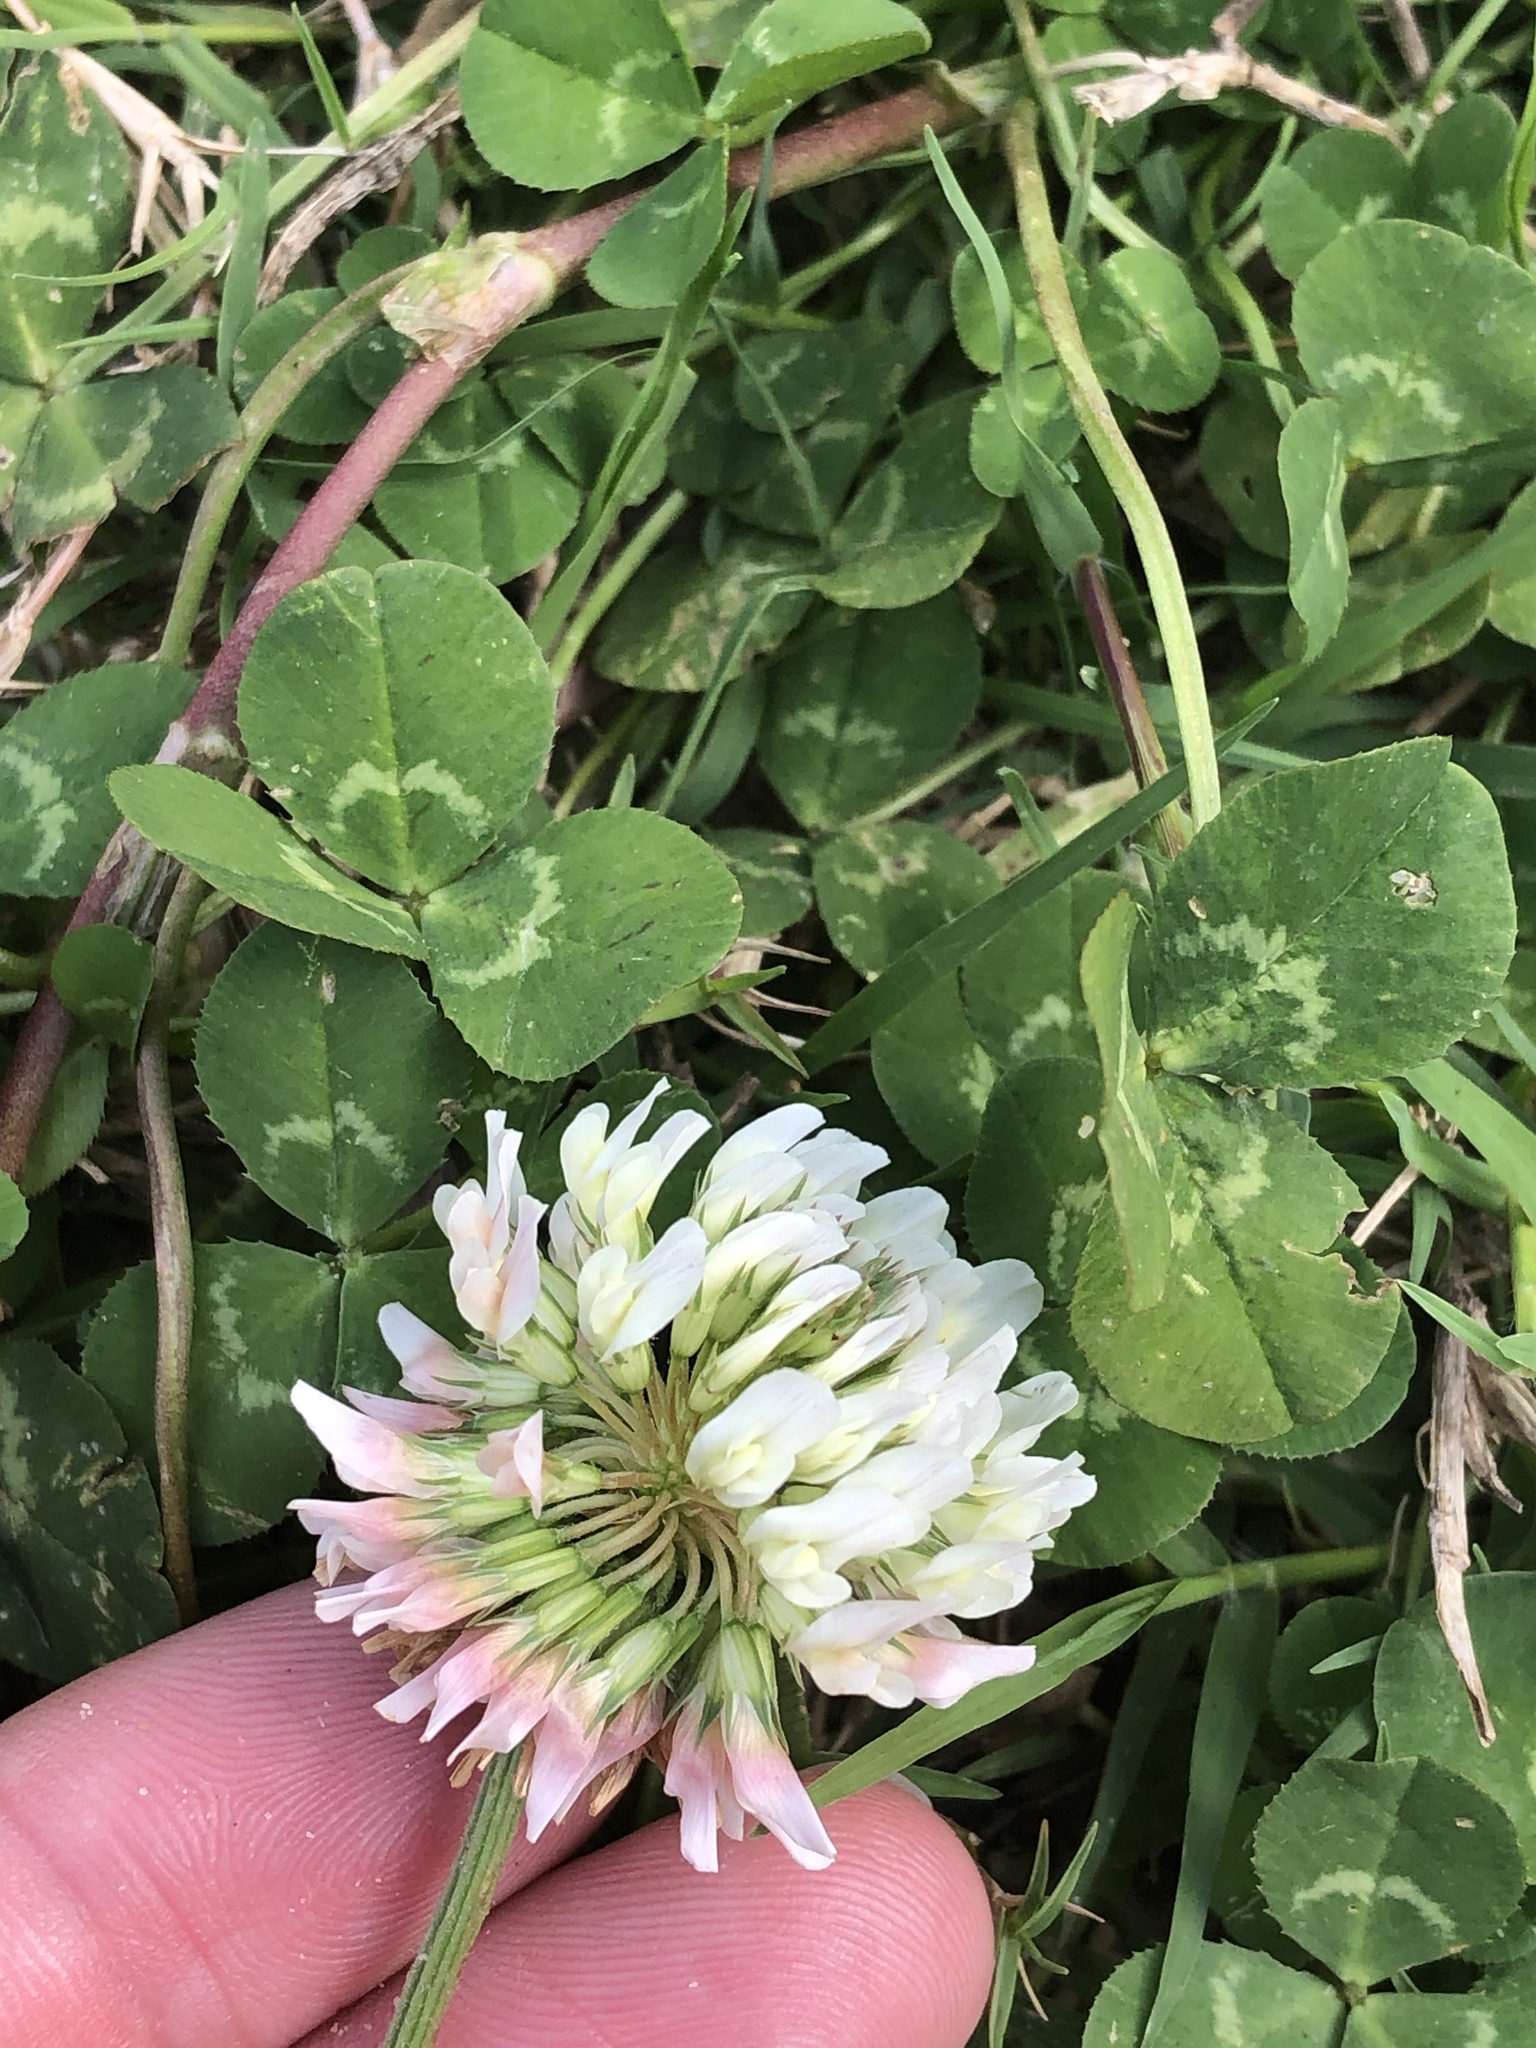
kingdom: Plantae
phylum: Tracheophyta
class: Magnoliopsida
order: Fabales
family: Fabaceae
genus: Trifolium
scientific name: Trifolium repens
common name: White clover
